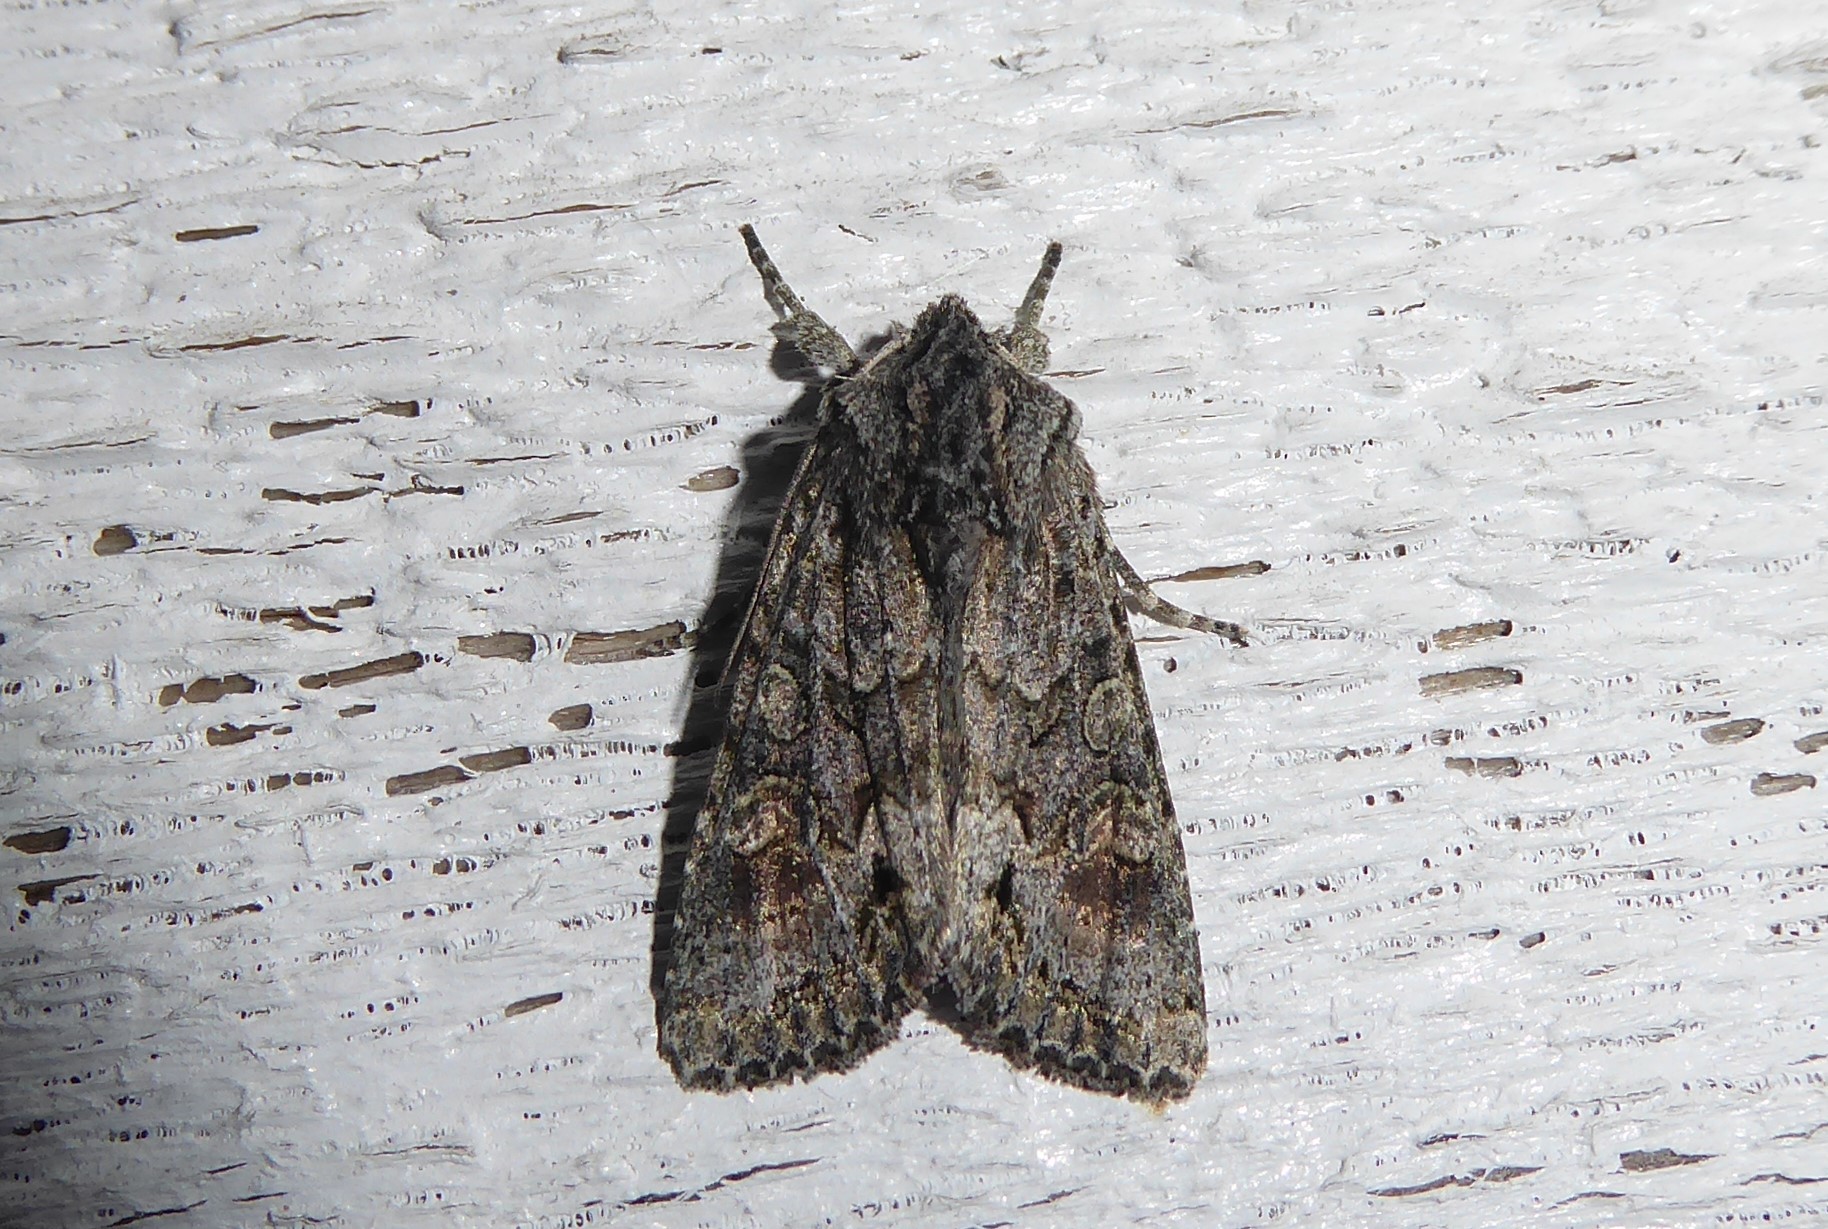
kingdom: Animalia
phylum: Arthropoda
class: Insecta
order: Lepidoptera
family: Noctuidae
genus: Ichneutica
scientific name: Ichneutica mutans
